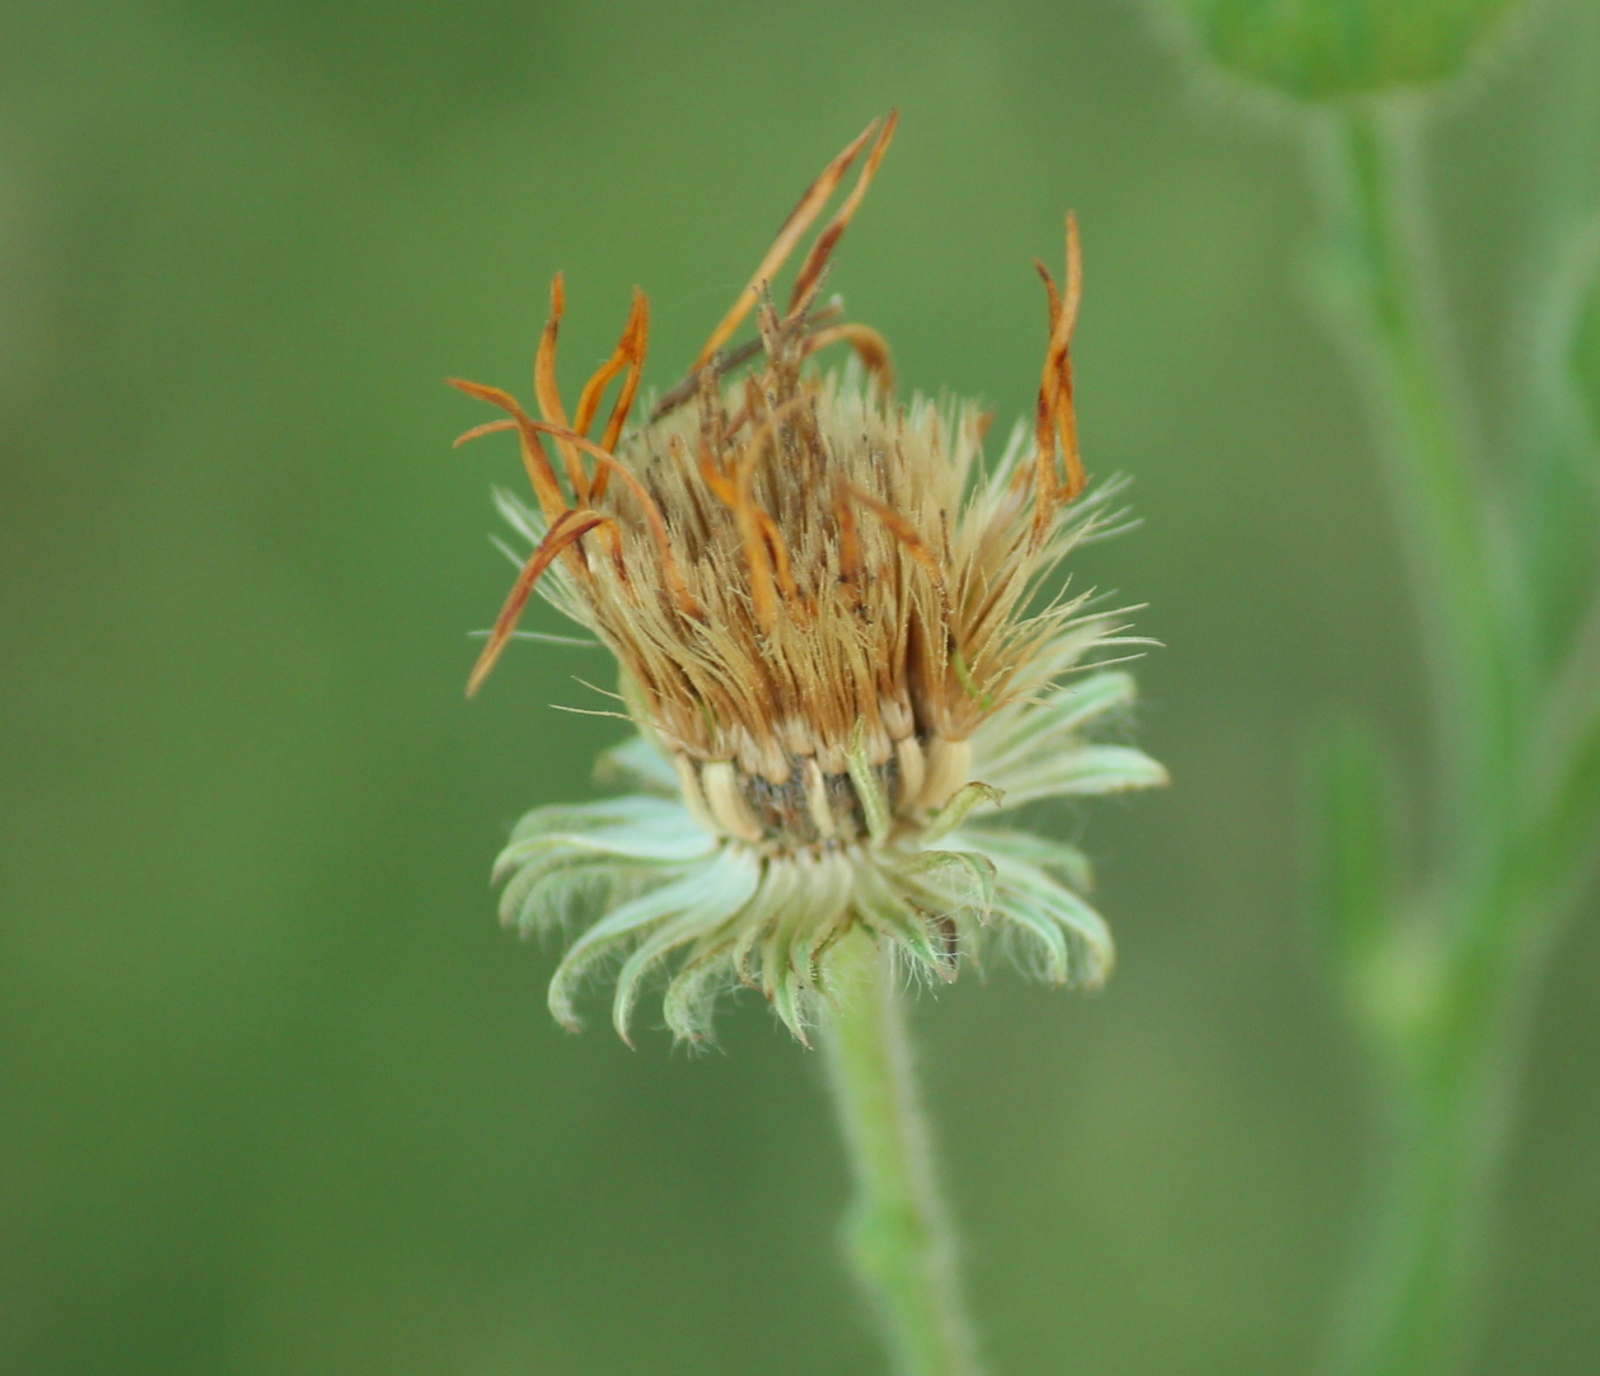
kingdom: Plantae
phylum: Tracheophyta
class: Magnoliopsida
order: Asterales
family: Asteraceae
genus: Bradburia
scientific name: Bradburia pilosa
